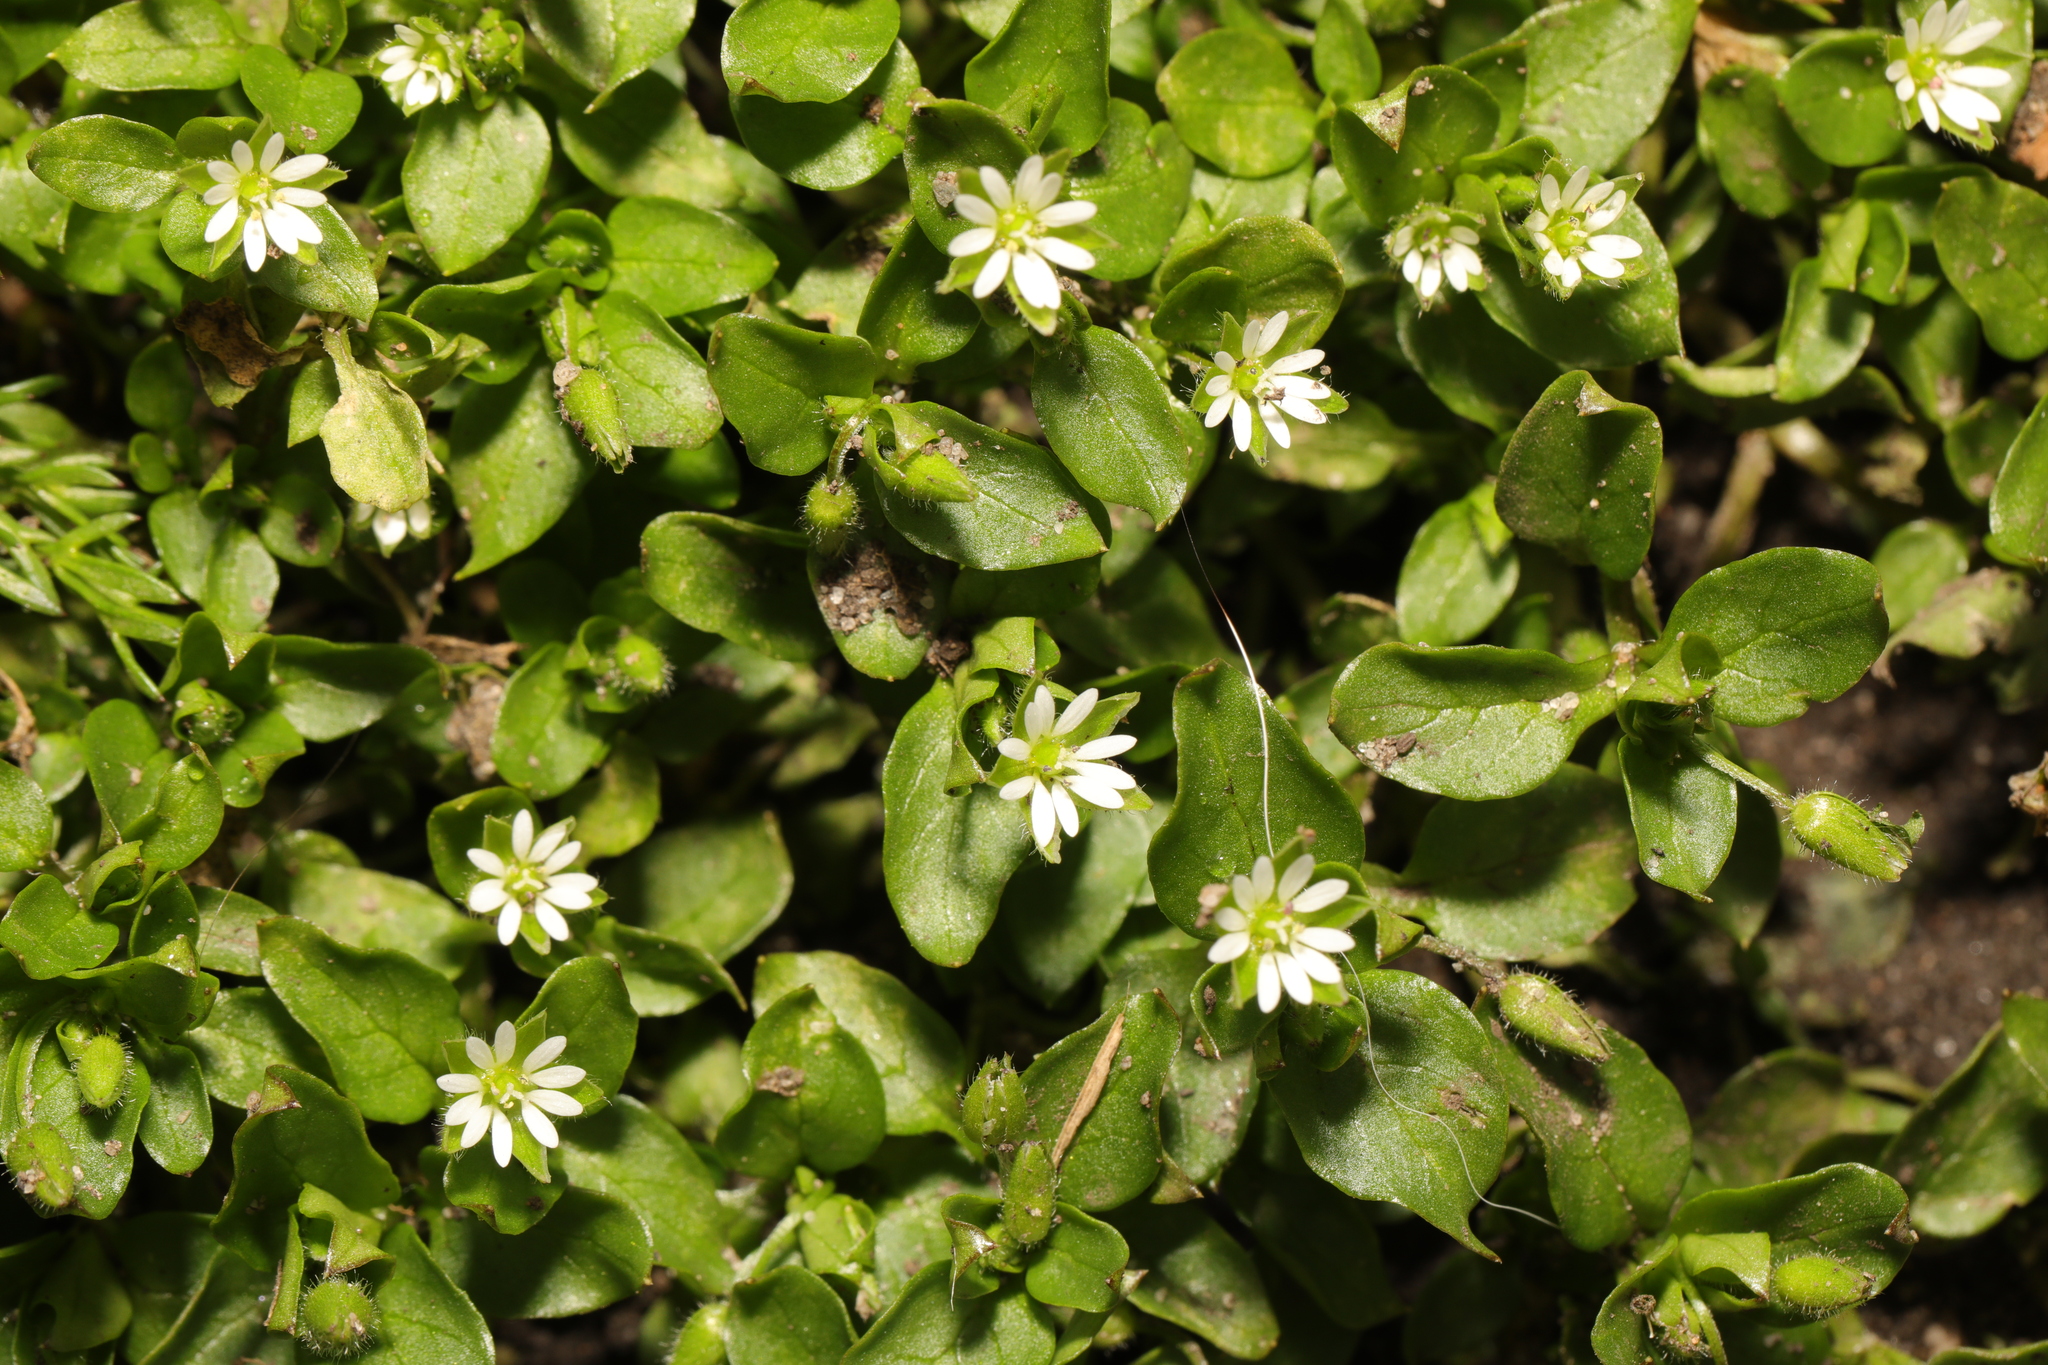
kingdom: Plantae
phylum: Tracheophyta
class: Magnoliopsida
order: Caryophyllales
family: Caryophyllaceae
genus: Stellaria
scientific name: Stellaria media
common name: Common chickweed
